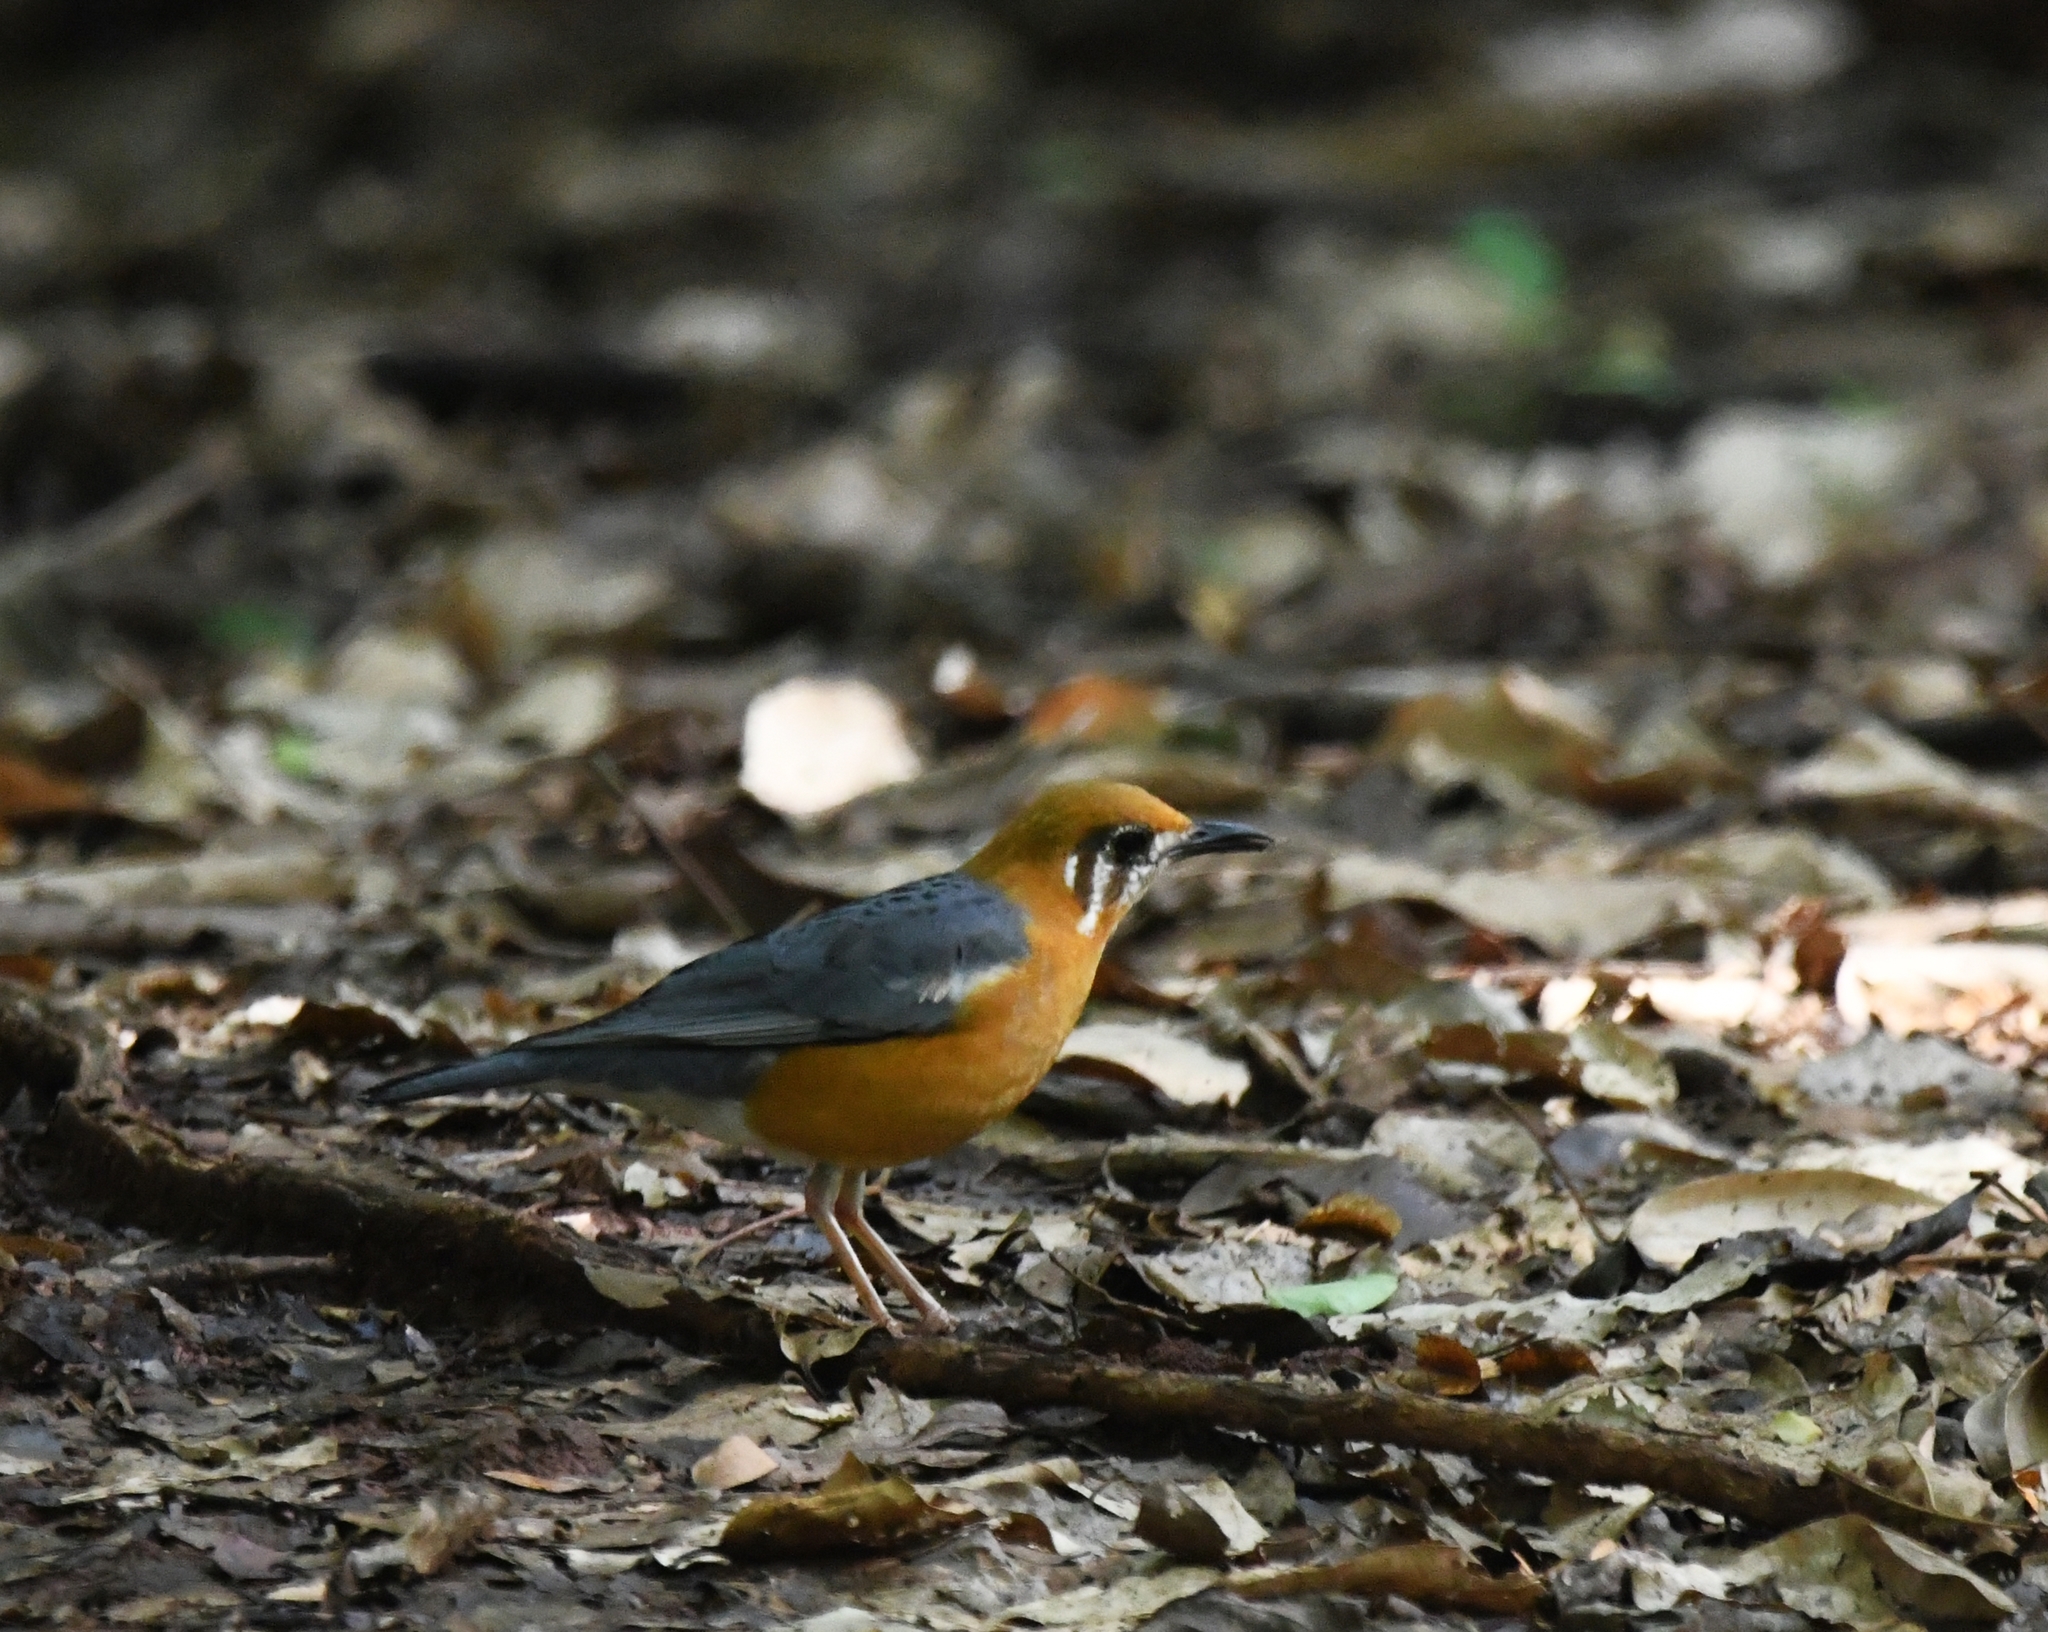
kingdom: Animalia
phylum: Chordata
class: Aves
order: Passeriformes
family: Turdidae
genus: Geokichla
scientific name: Geokichla citrina
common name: Orange-headed thrush
